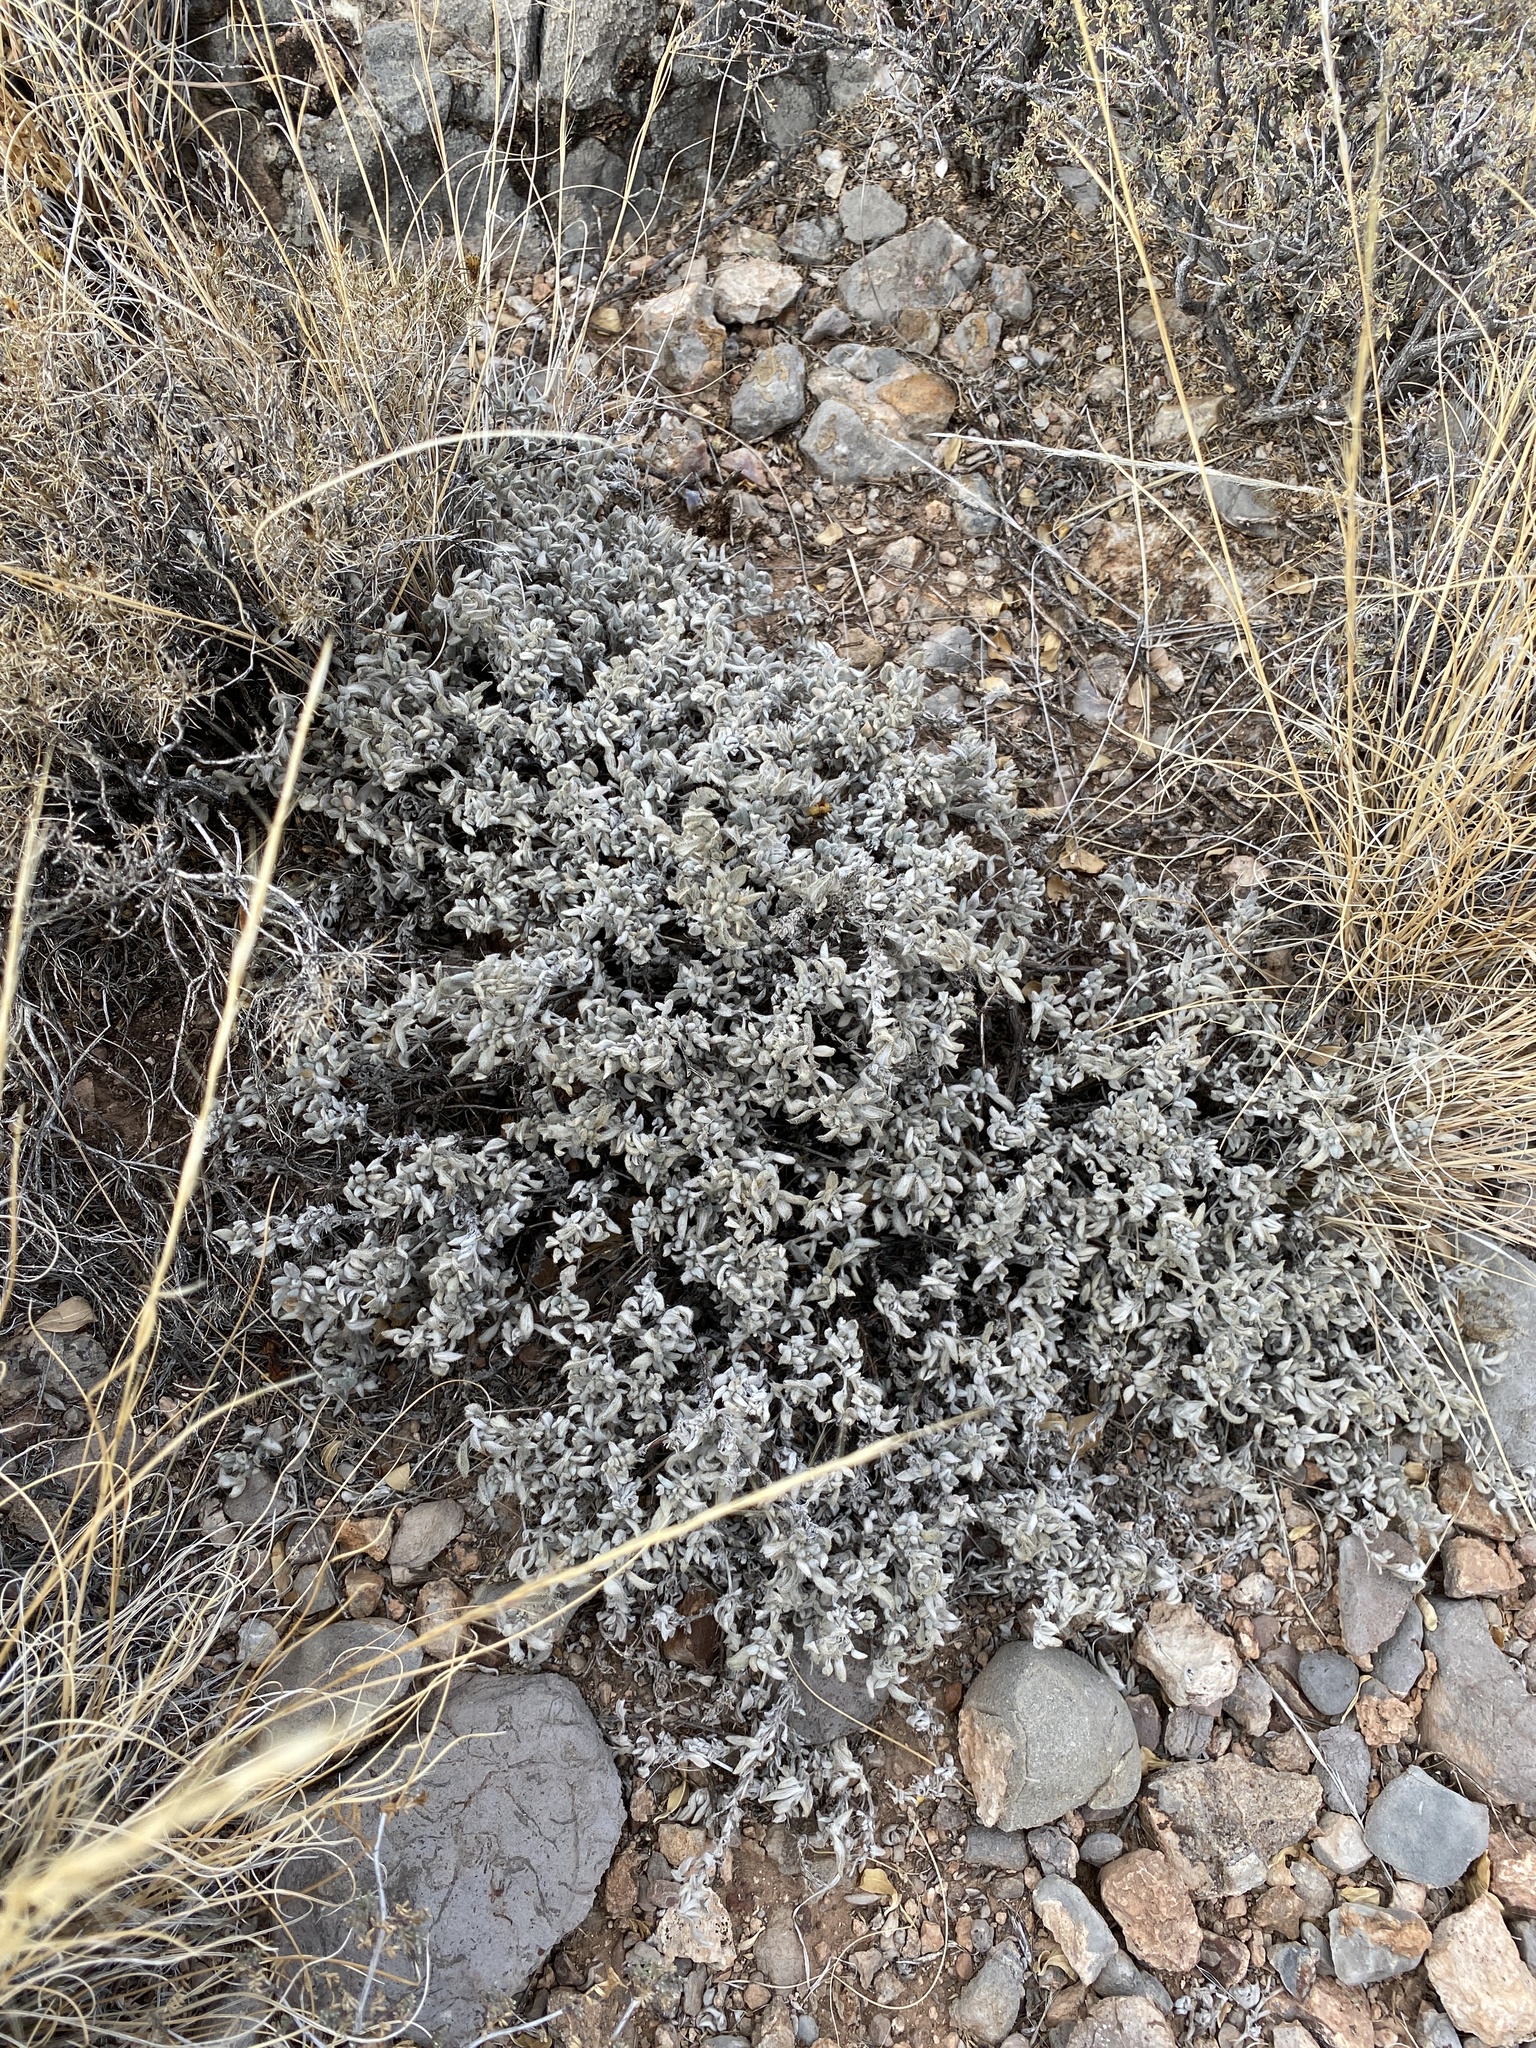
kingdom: Plantae
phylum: Tracheophyta
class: Magnoliopsida
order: Boraginales
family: Ehretiaceae
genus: Tiquilia
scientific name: Tiquilia canescens
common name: Hairy tiquilia
